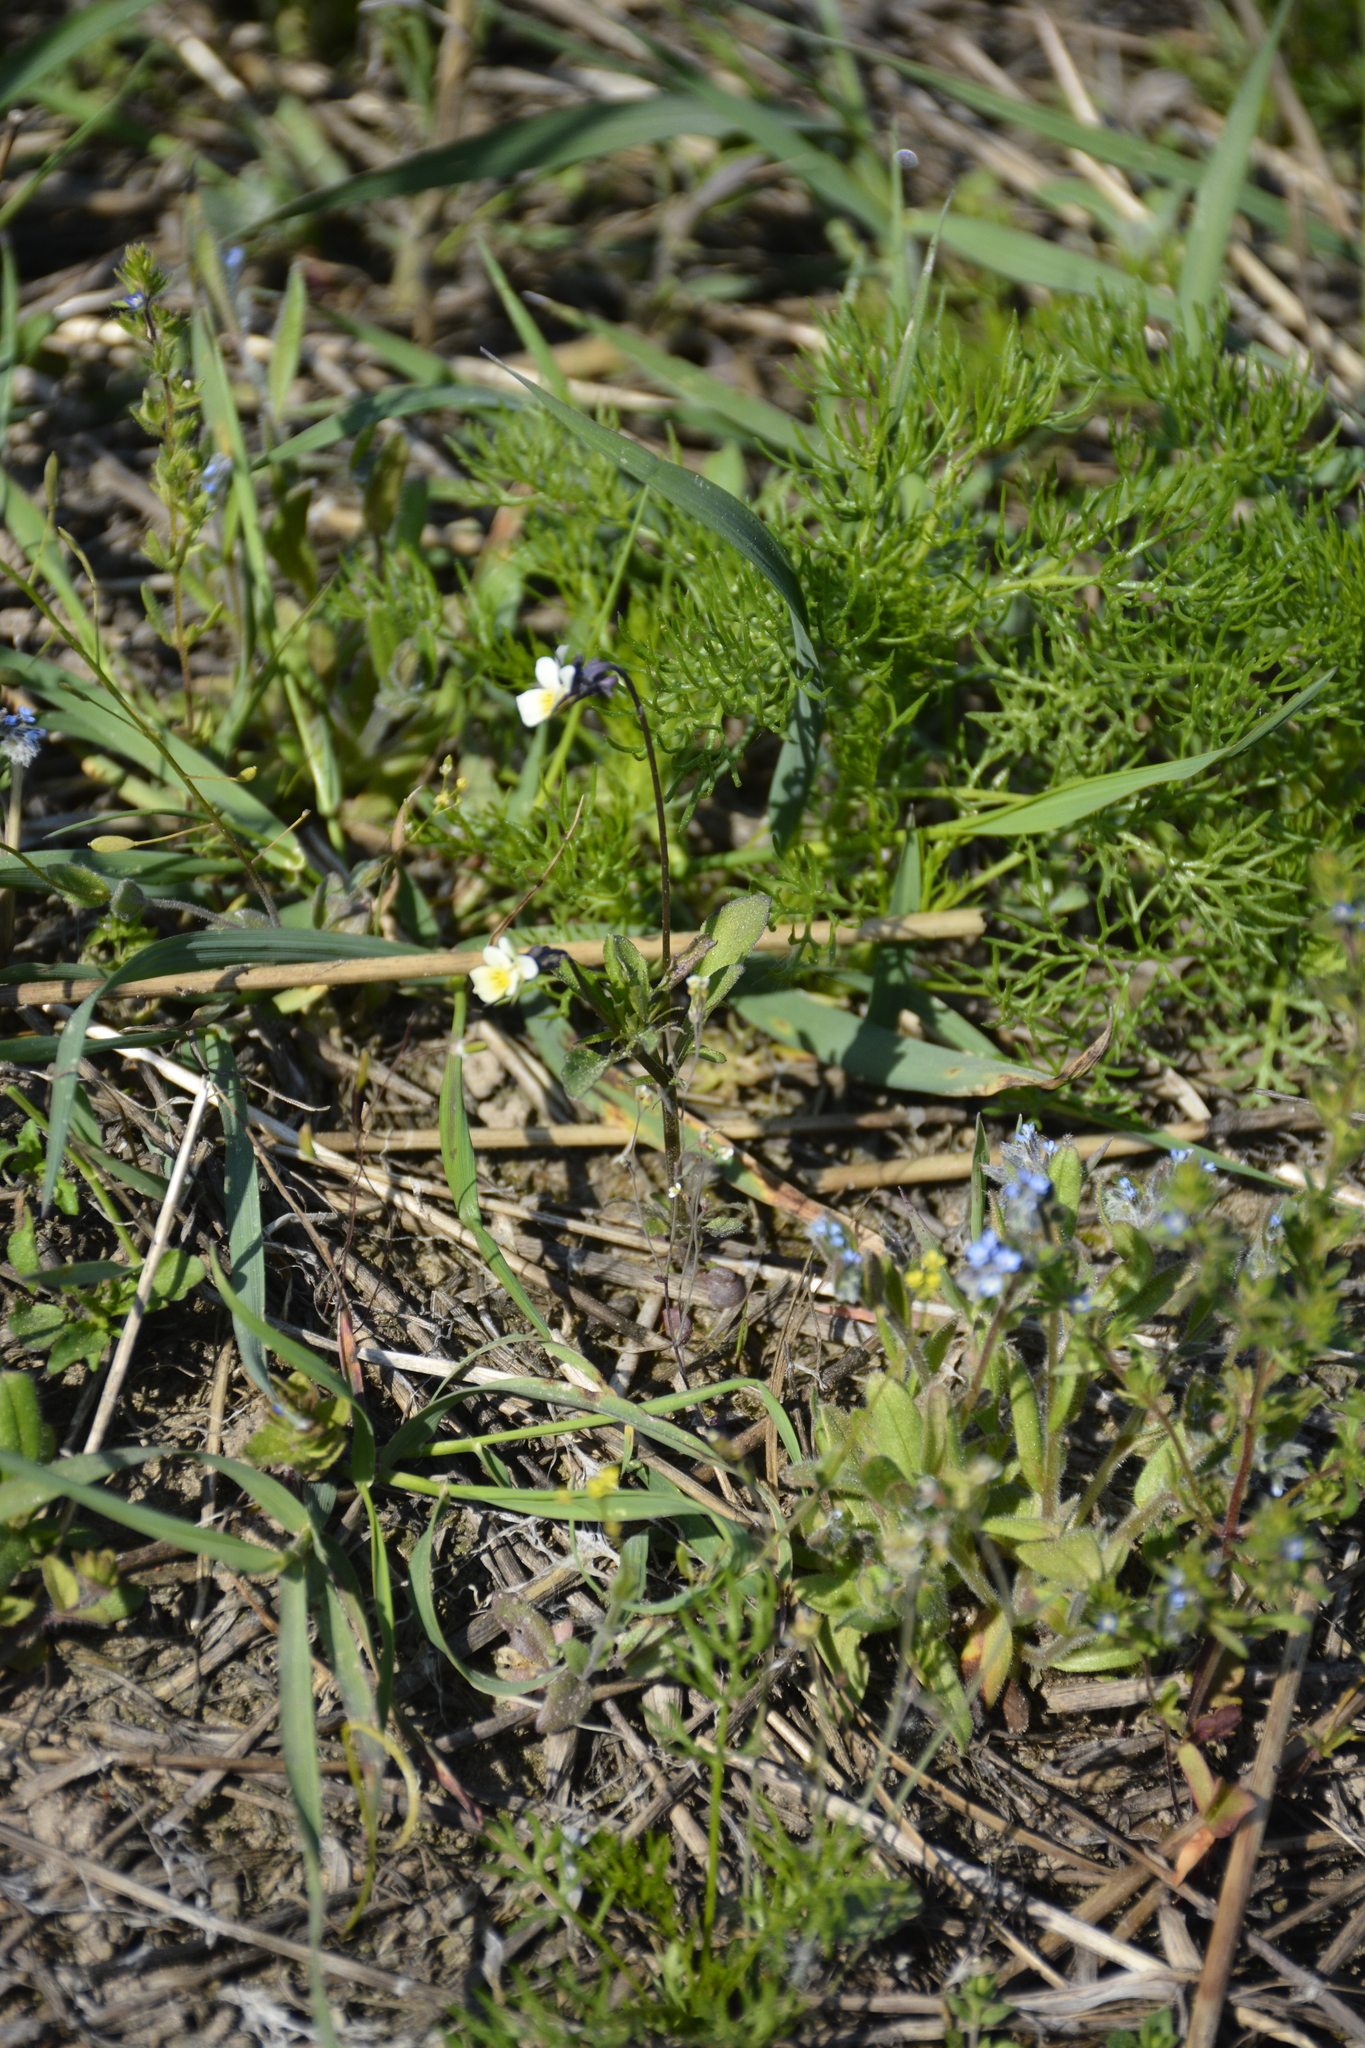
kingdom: Plantae
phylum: Tracheophyta
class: Magnoliopsida
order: Malpighiales
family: Violaceae
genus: Viola
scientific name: Viola arvensis
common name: Field pansy
